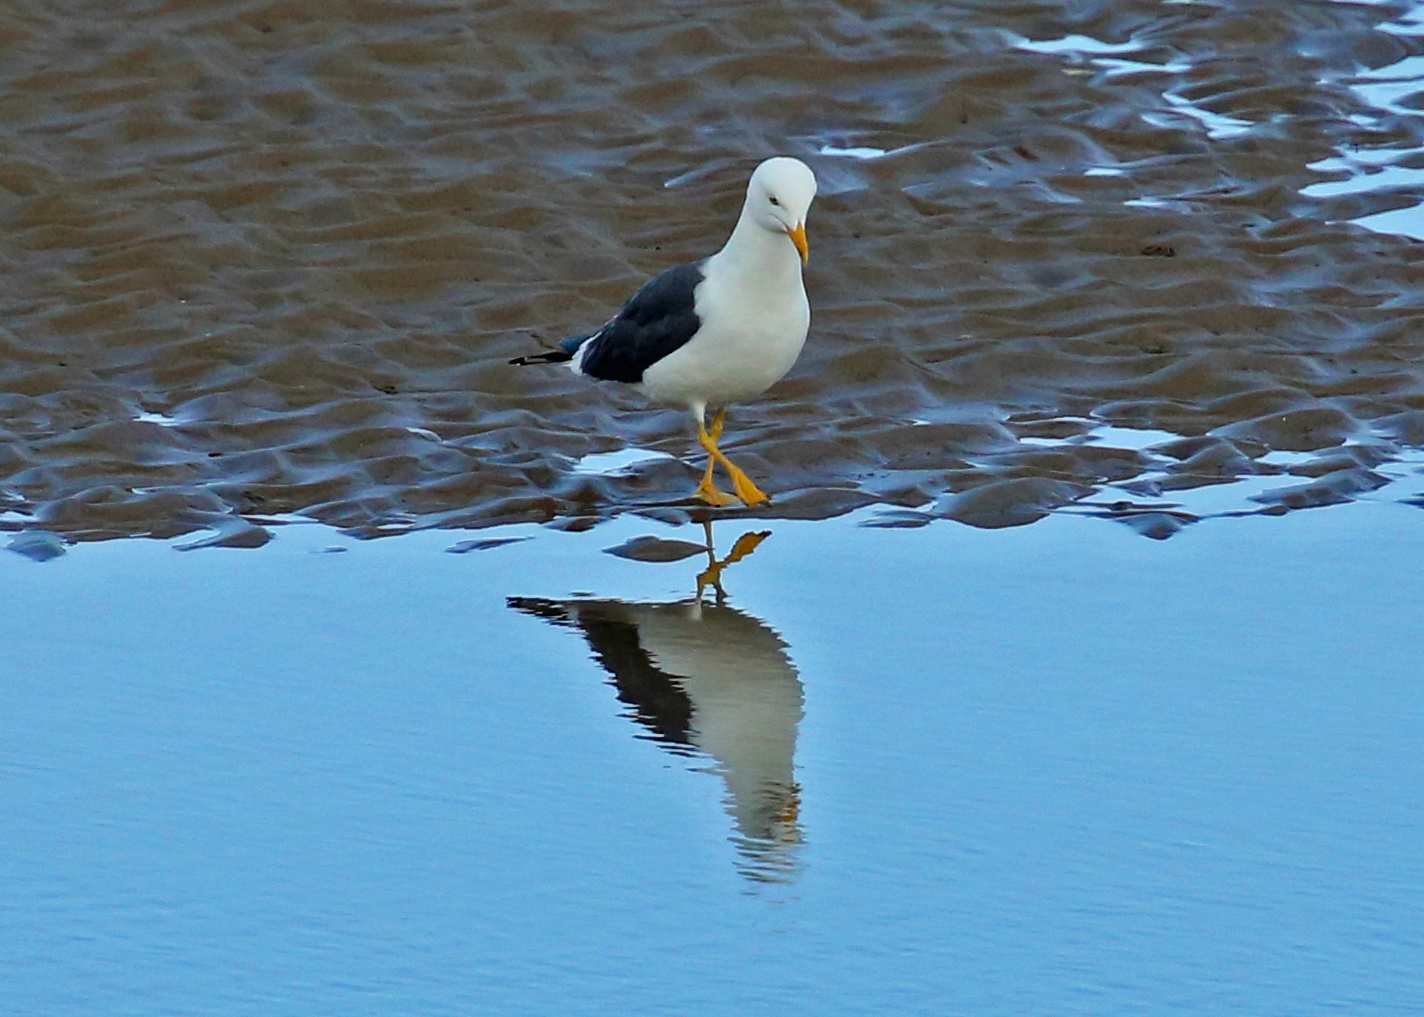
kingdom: Animalia
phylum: Chordata
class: Aves
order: Charadriiformes
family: Laridae
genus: Larus
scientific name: Larus fuscus
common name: Lesser black-backed gull
